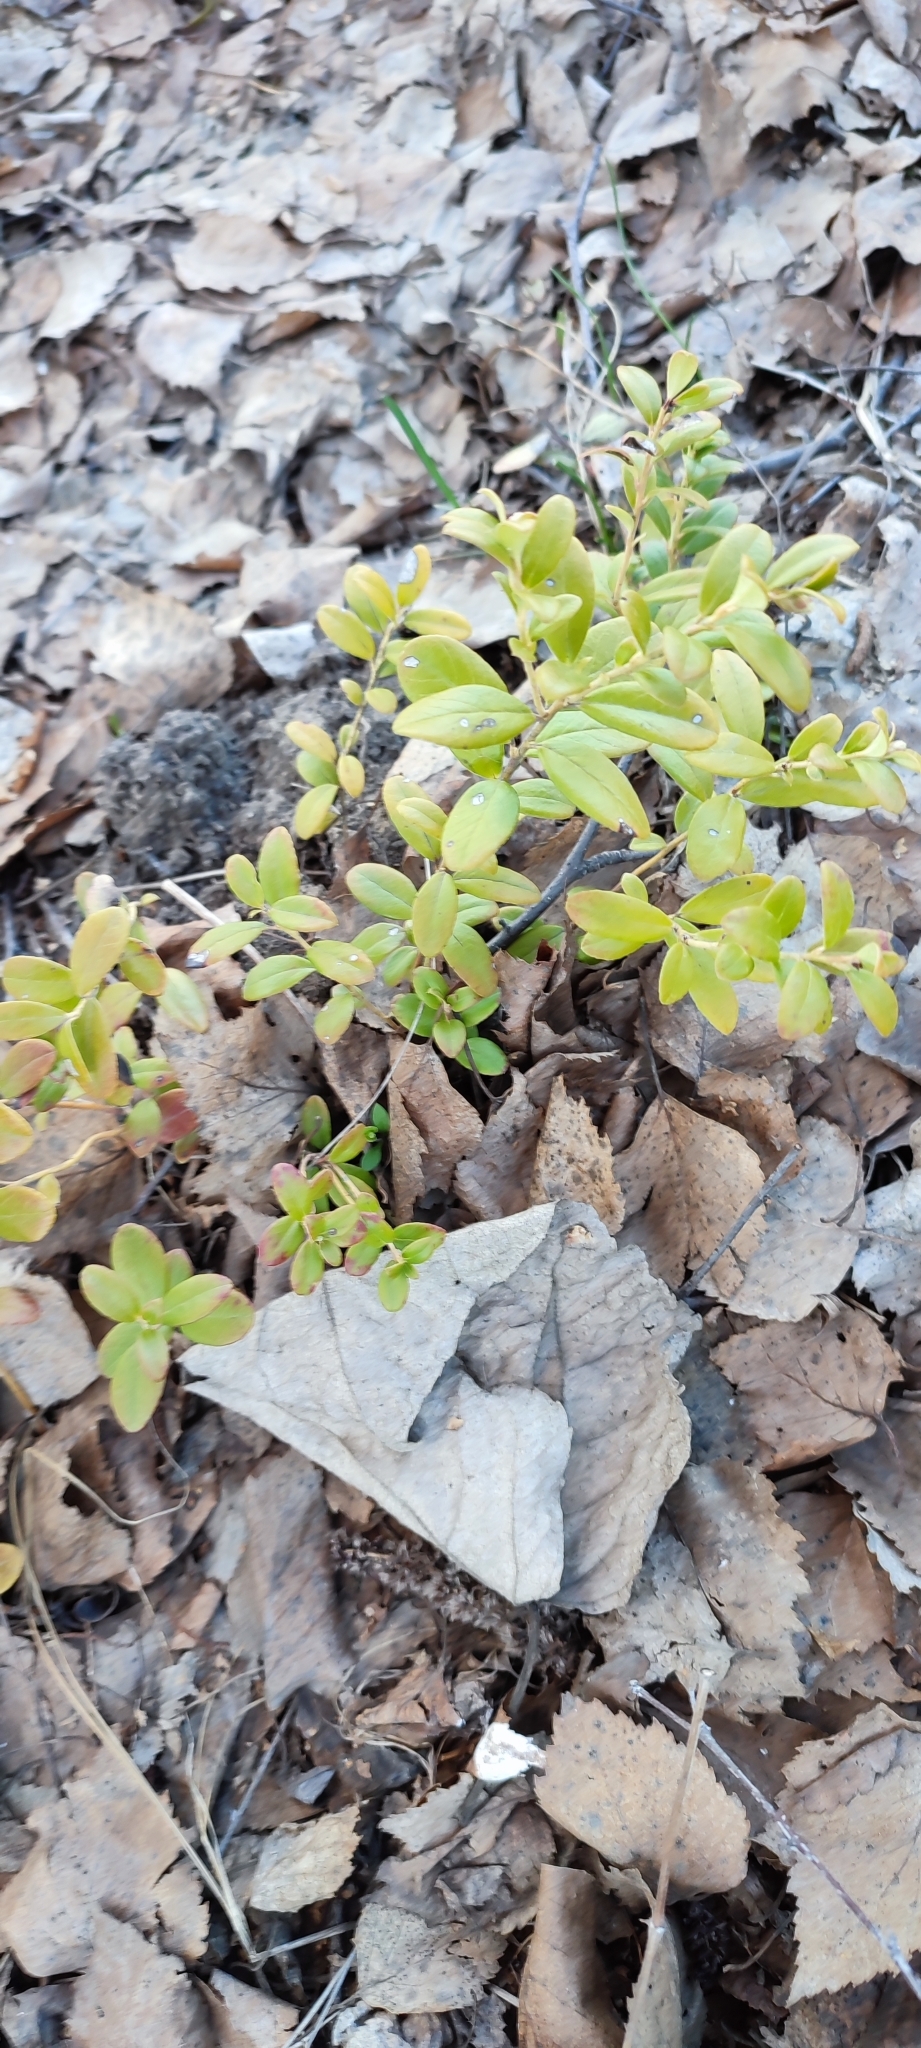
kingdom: Plantae
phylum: Tracheophyta
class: Magnoliopsida
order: Ericales
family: Ericaceae
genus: Vaccinium
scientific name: Vaccinium vitis-idaea
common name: Cowberry
